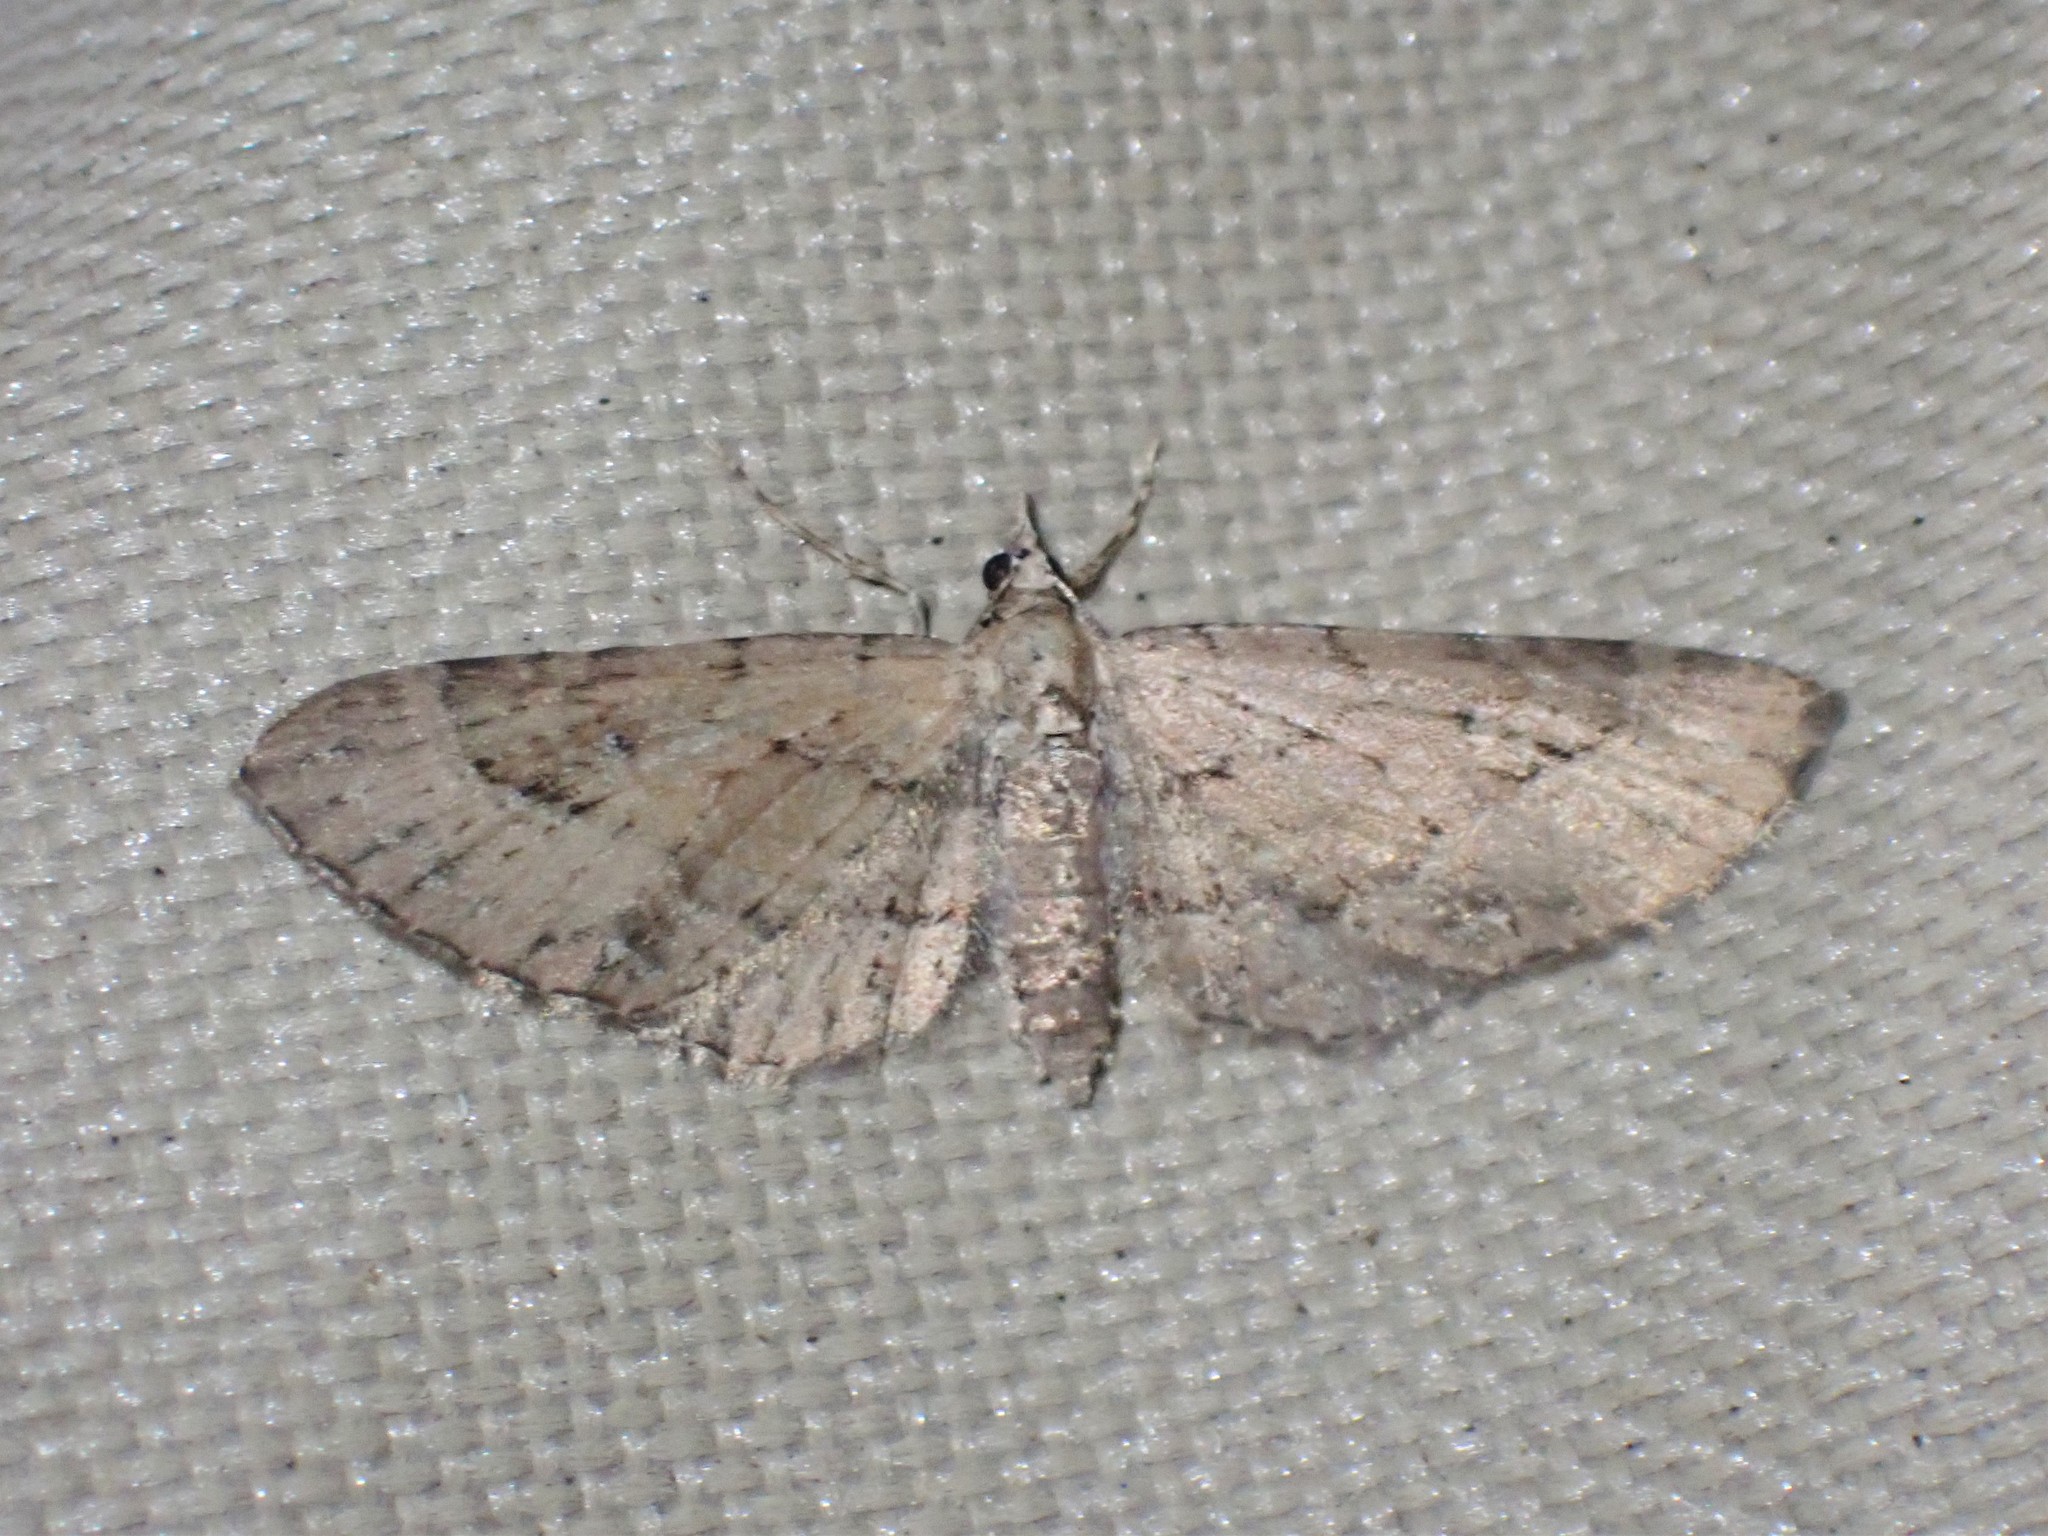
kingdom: Animalia
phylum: Arthropoda
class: Insecta
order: Lepidoptera
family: Geometridae
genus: Eupithecia
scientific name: Eupithecia unicolor
